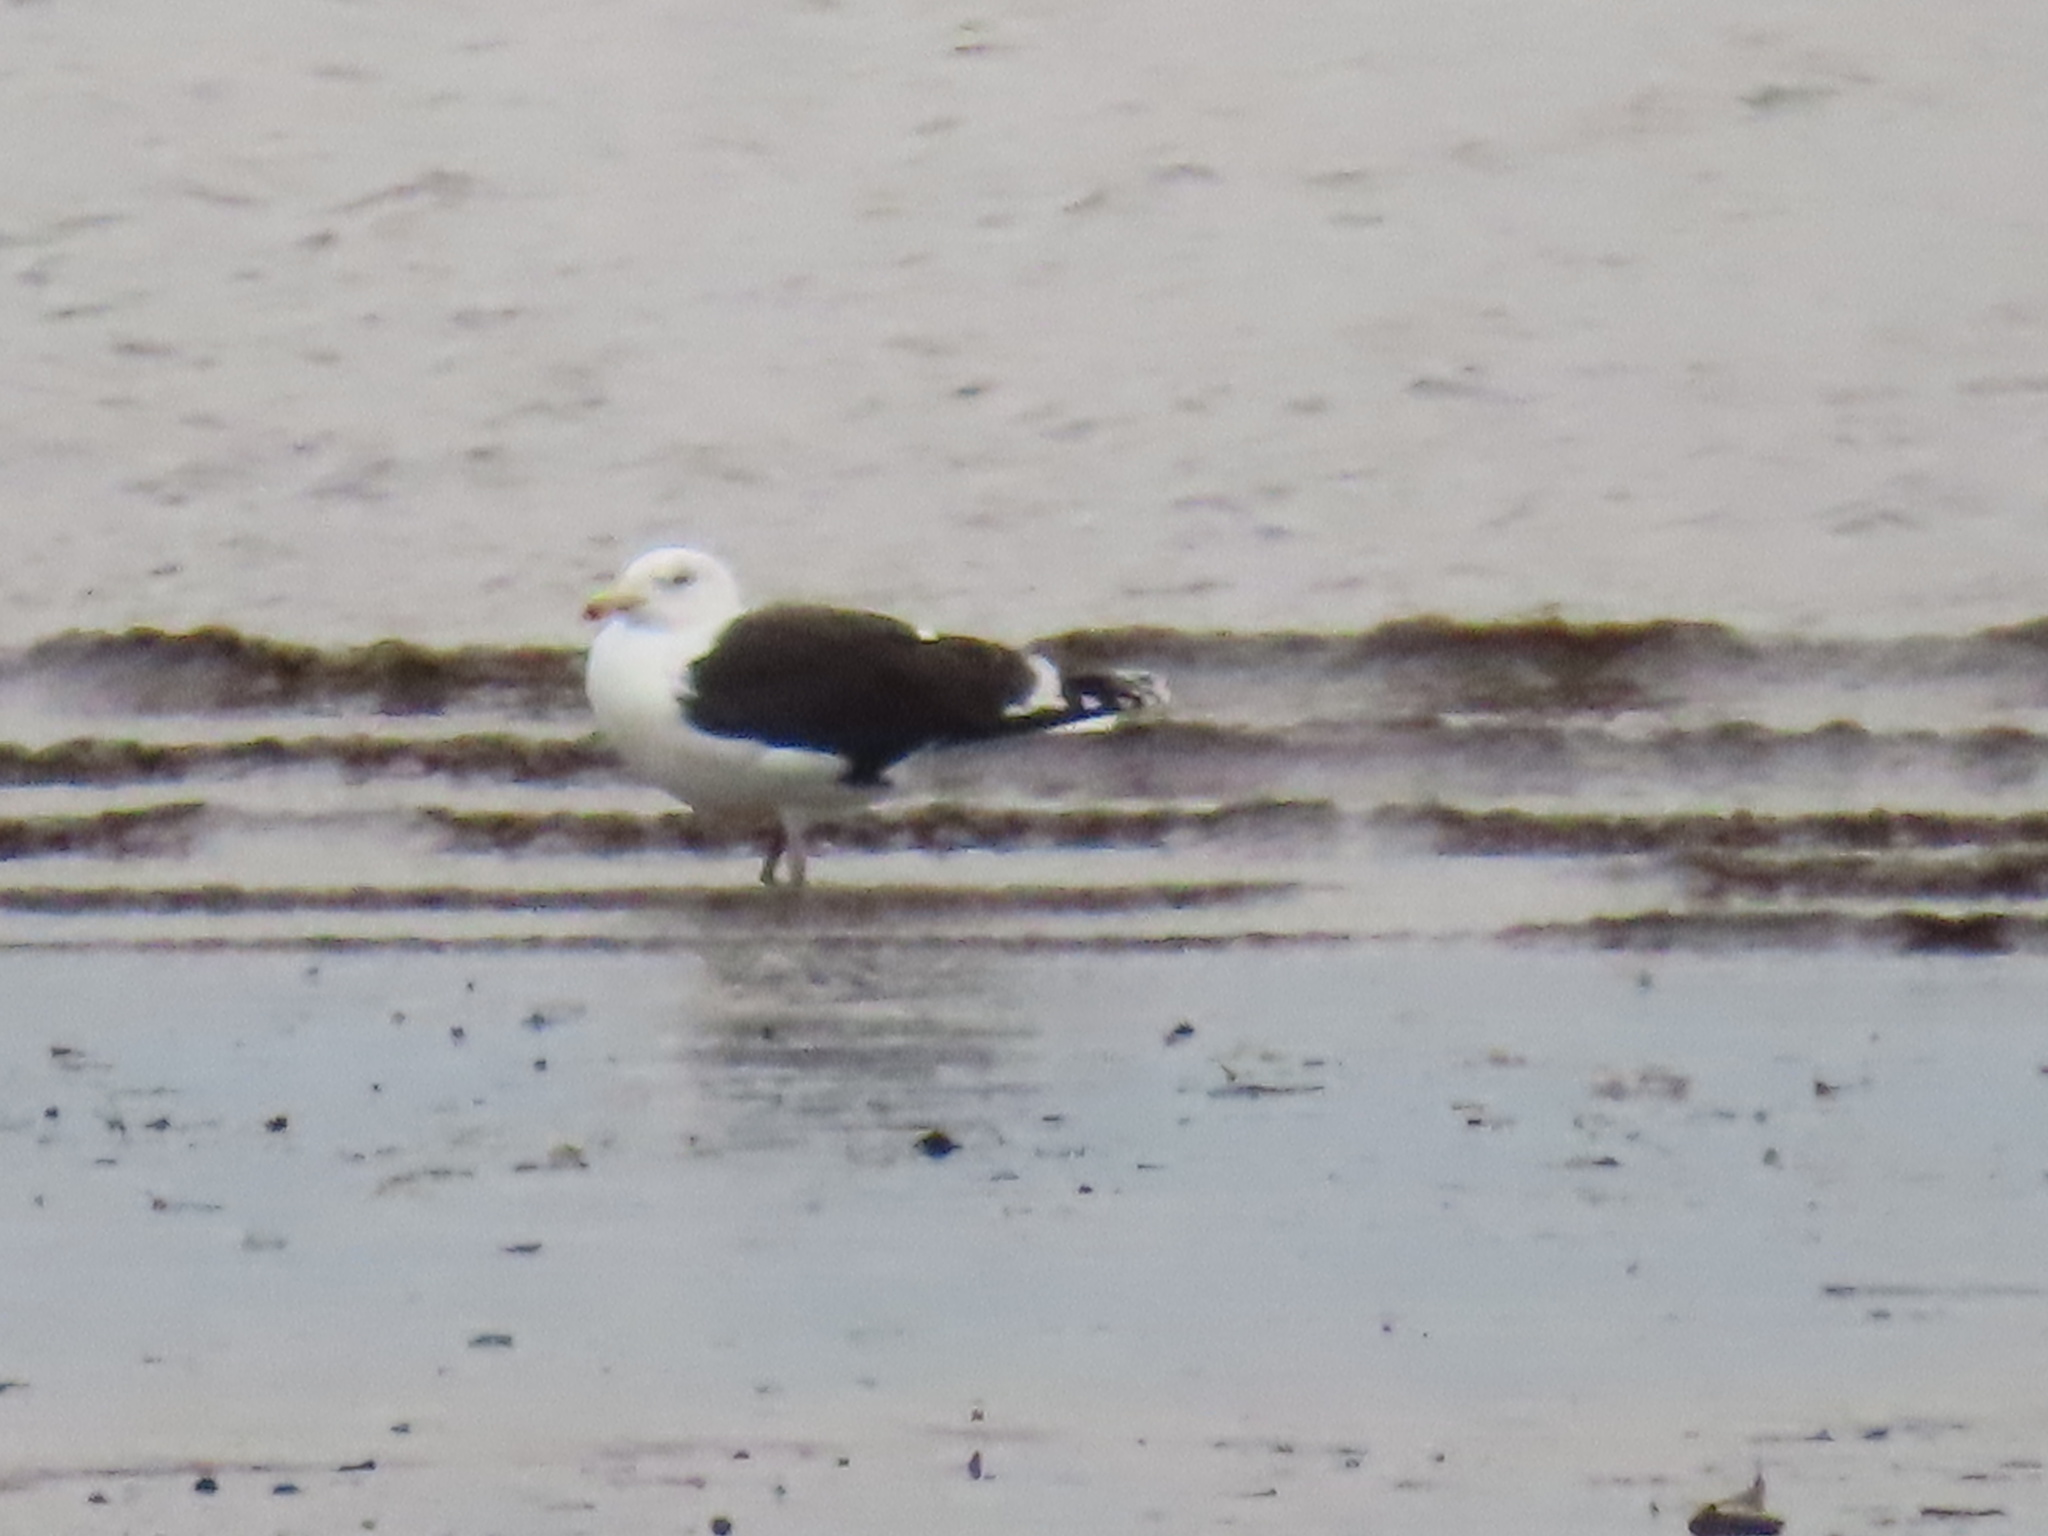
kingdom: Animalia
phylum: Chordata
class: Aves
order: Charadriiformes
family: Laridae
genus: Larus
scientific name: Larus marinus
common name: Great black-backed gull
